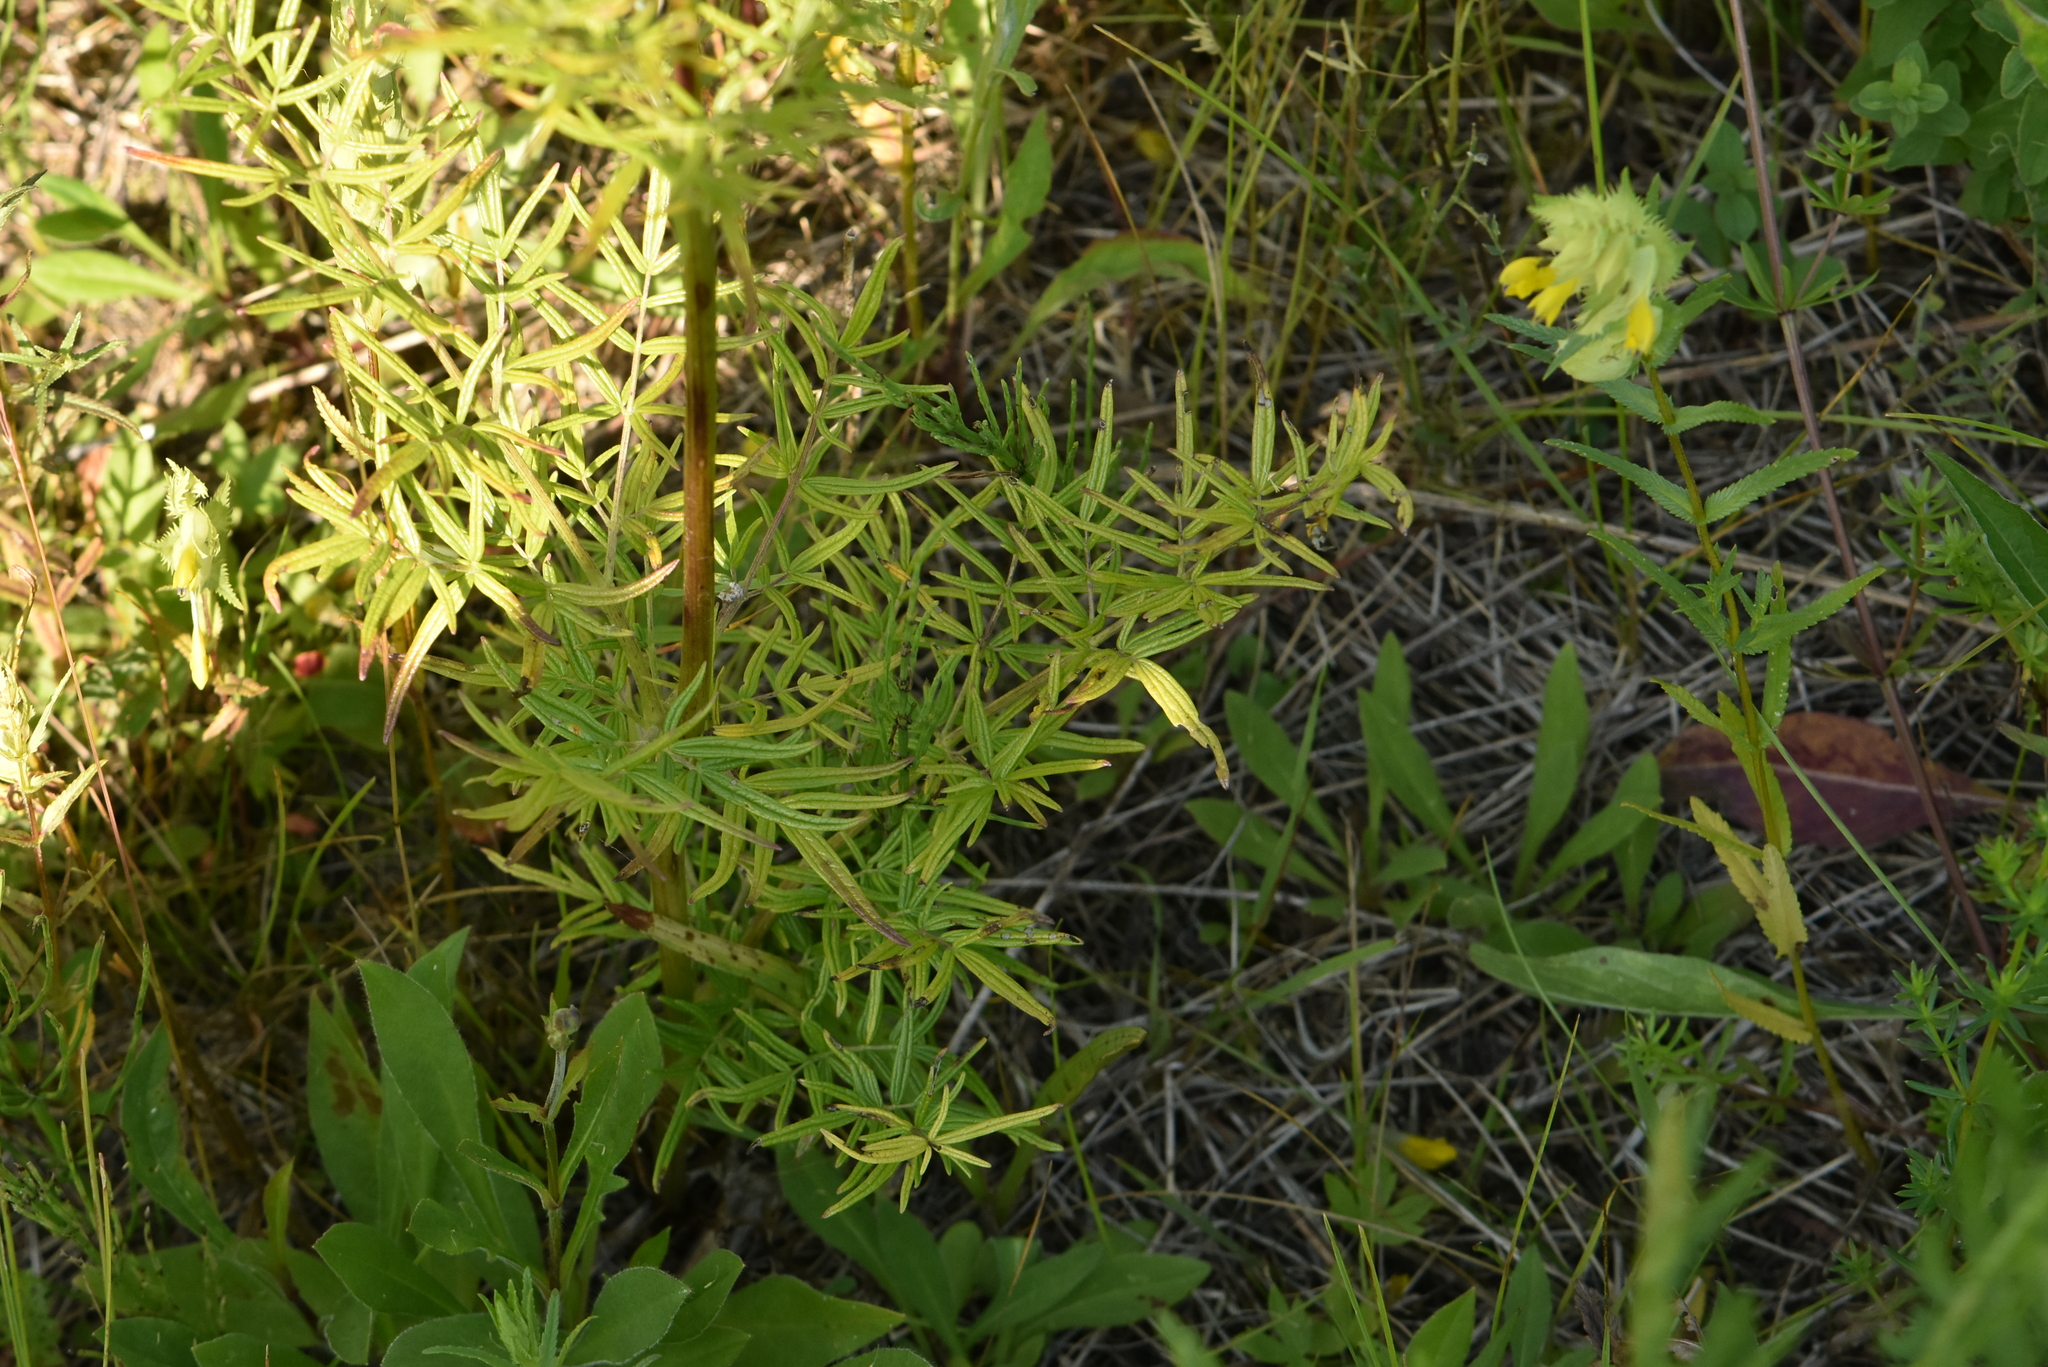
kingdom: Plantae
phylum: Tracheophyta
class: Magnoliopsida
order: Ranunculales
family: Ranunculaceae
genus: Thalictrum
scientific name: Thalictrum lucidum
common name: Shining meadow-rue
